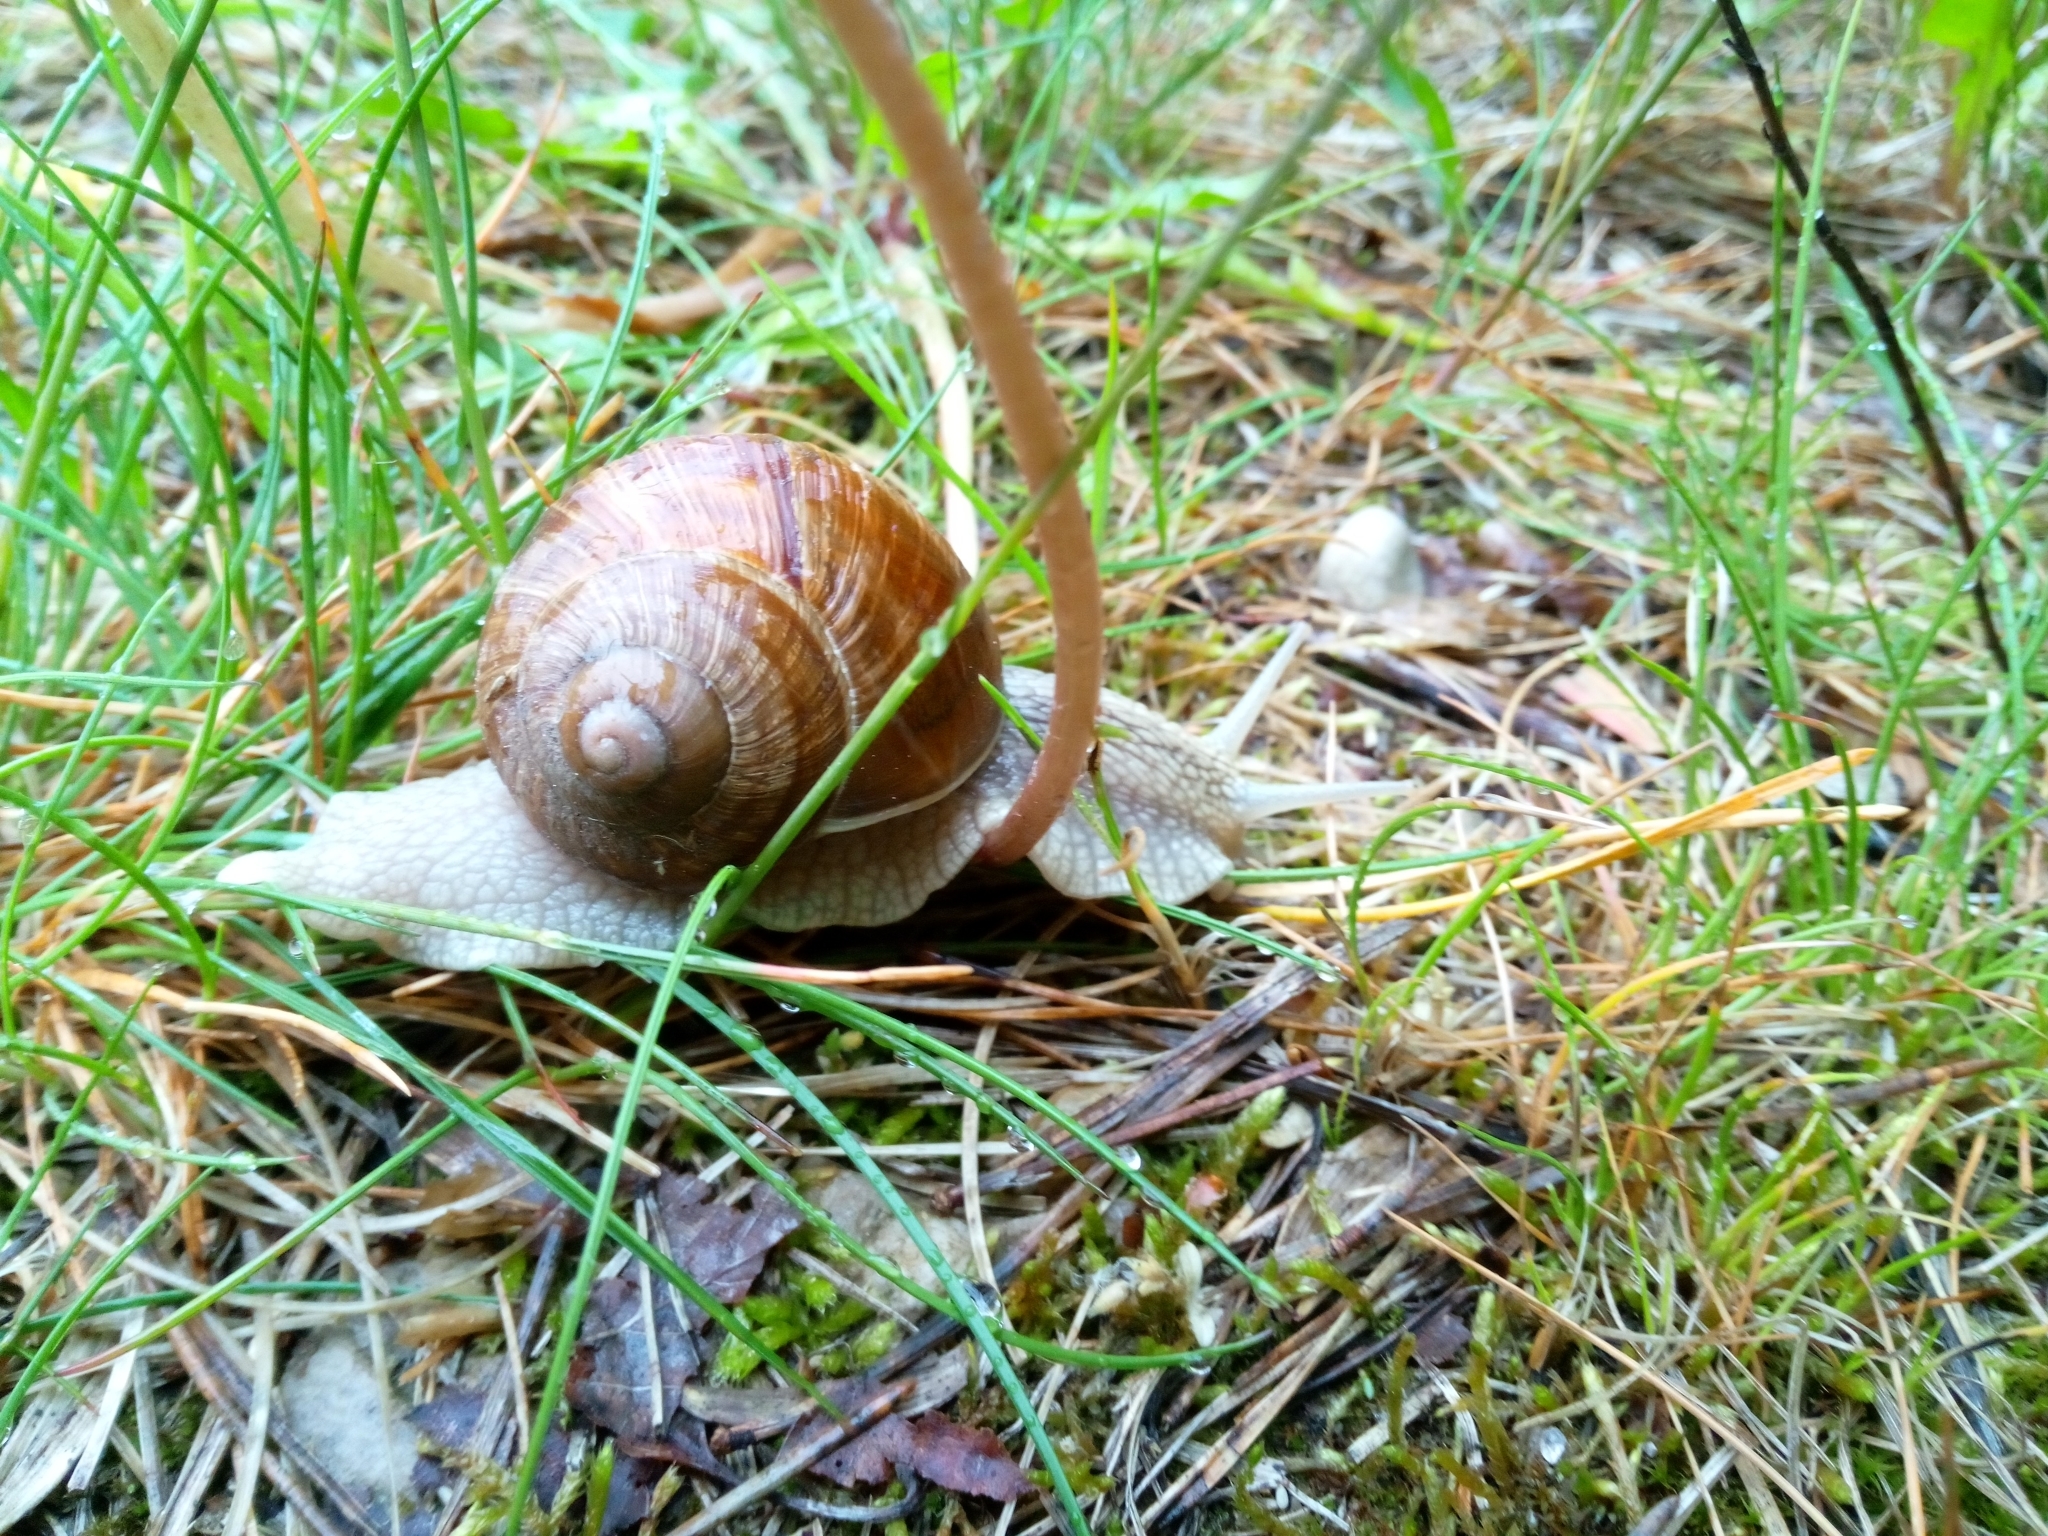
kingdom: Animalia
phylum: Mollusca
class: Gastropoda
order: Stylommatophora
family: Helicidae
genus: Helix
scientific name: Helix pomatia
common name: Roman snail
